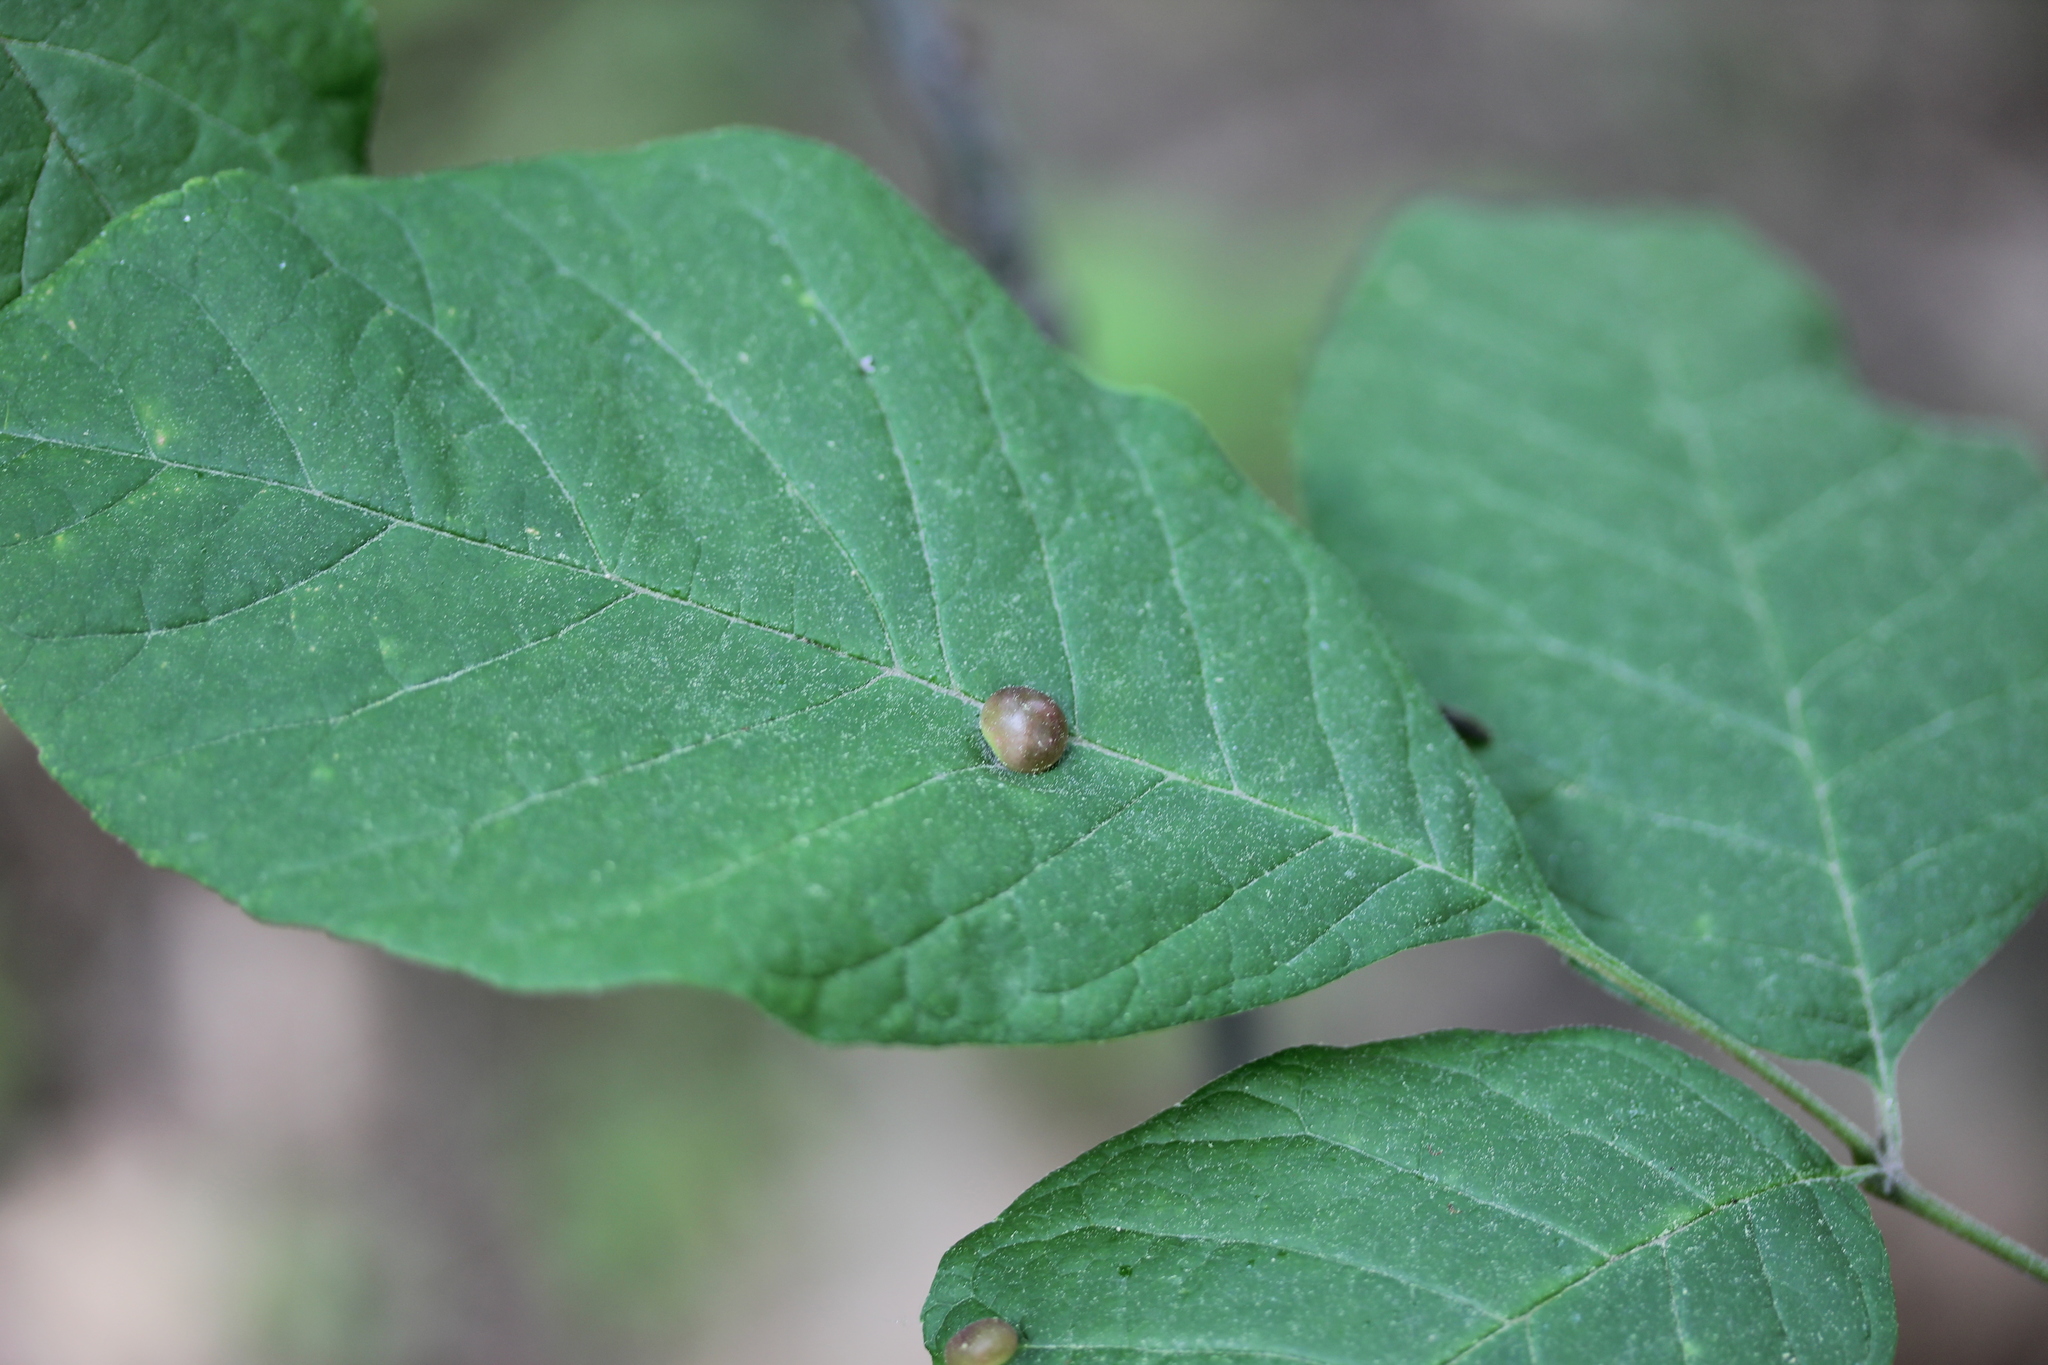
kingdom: Animalia
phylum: Arthropoda
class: Insecta
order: Diptera
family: Cecidomyiidae
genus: Dasineura
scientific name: Dasineura pellex
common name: Ash bullet gall midge
